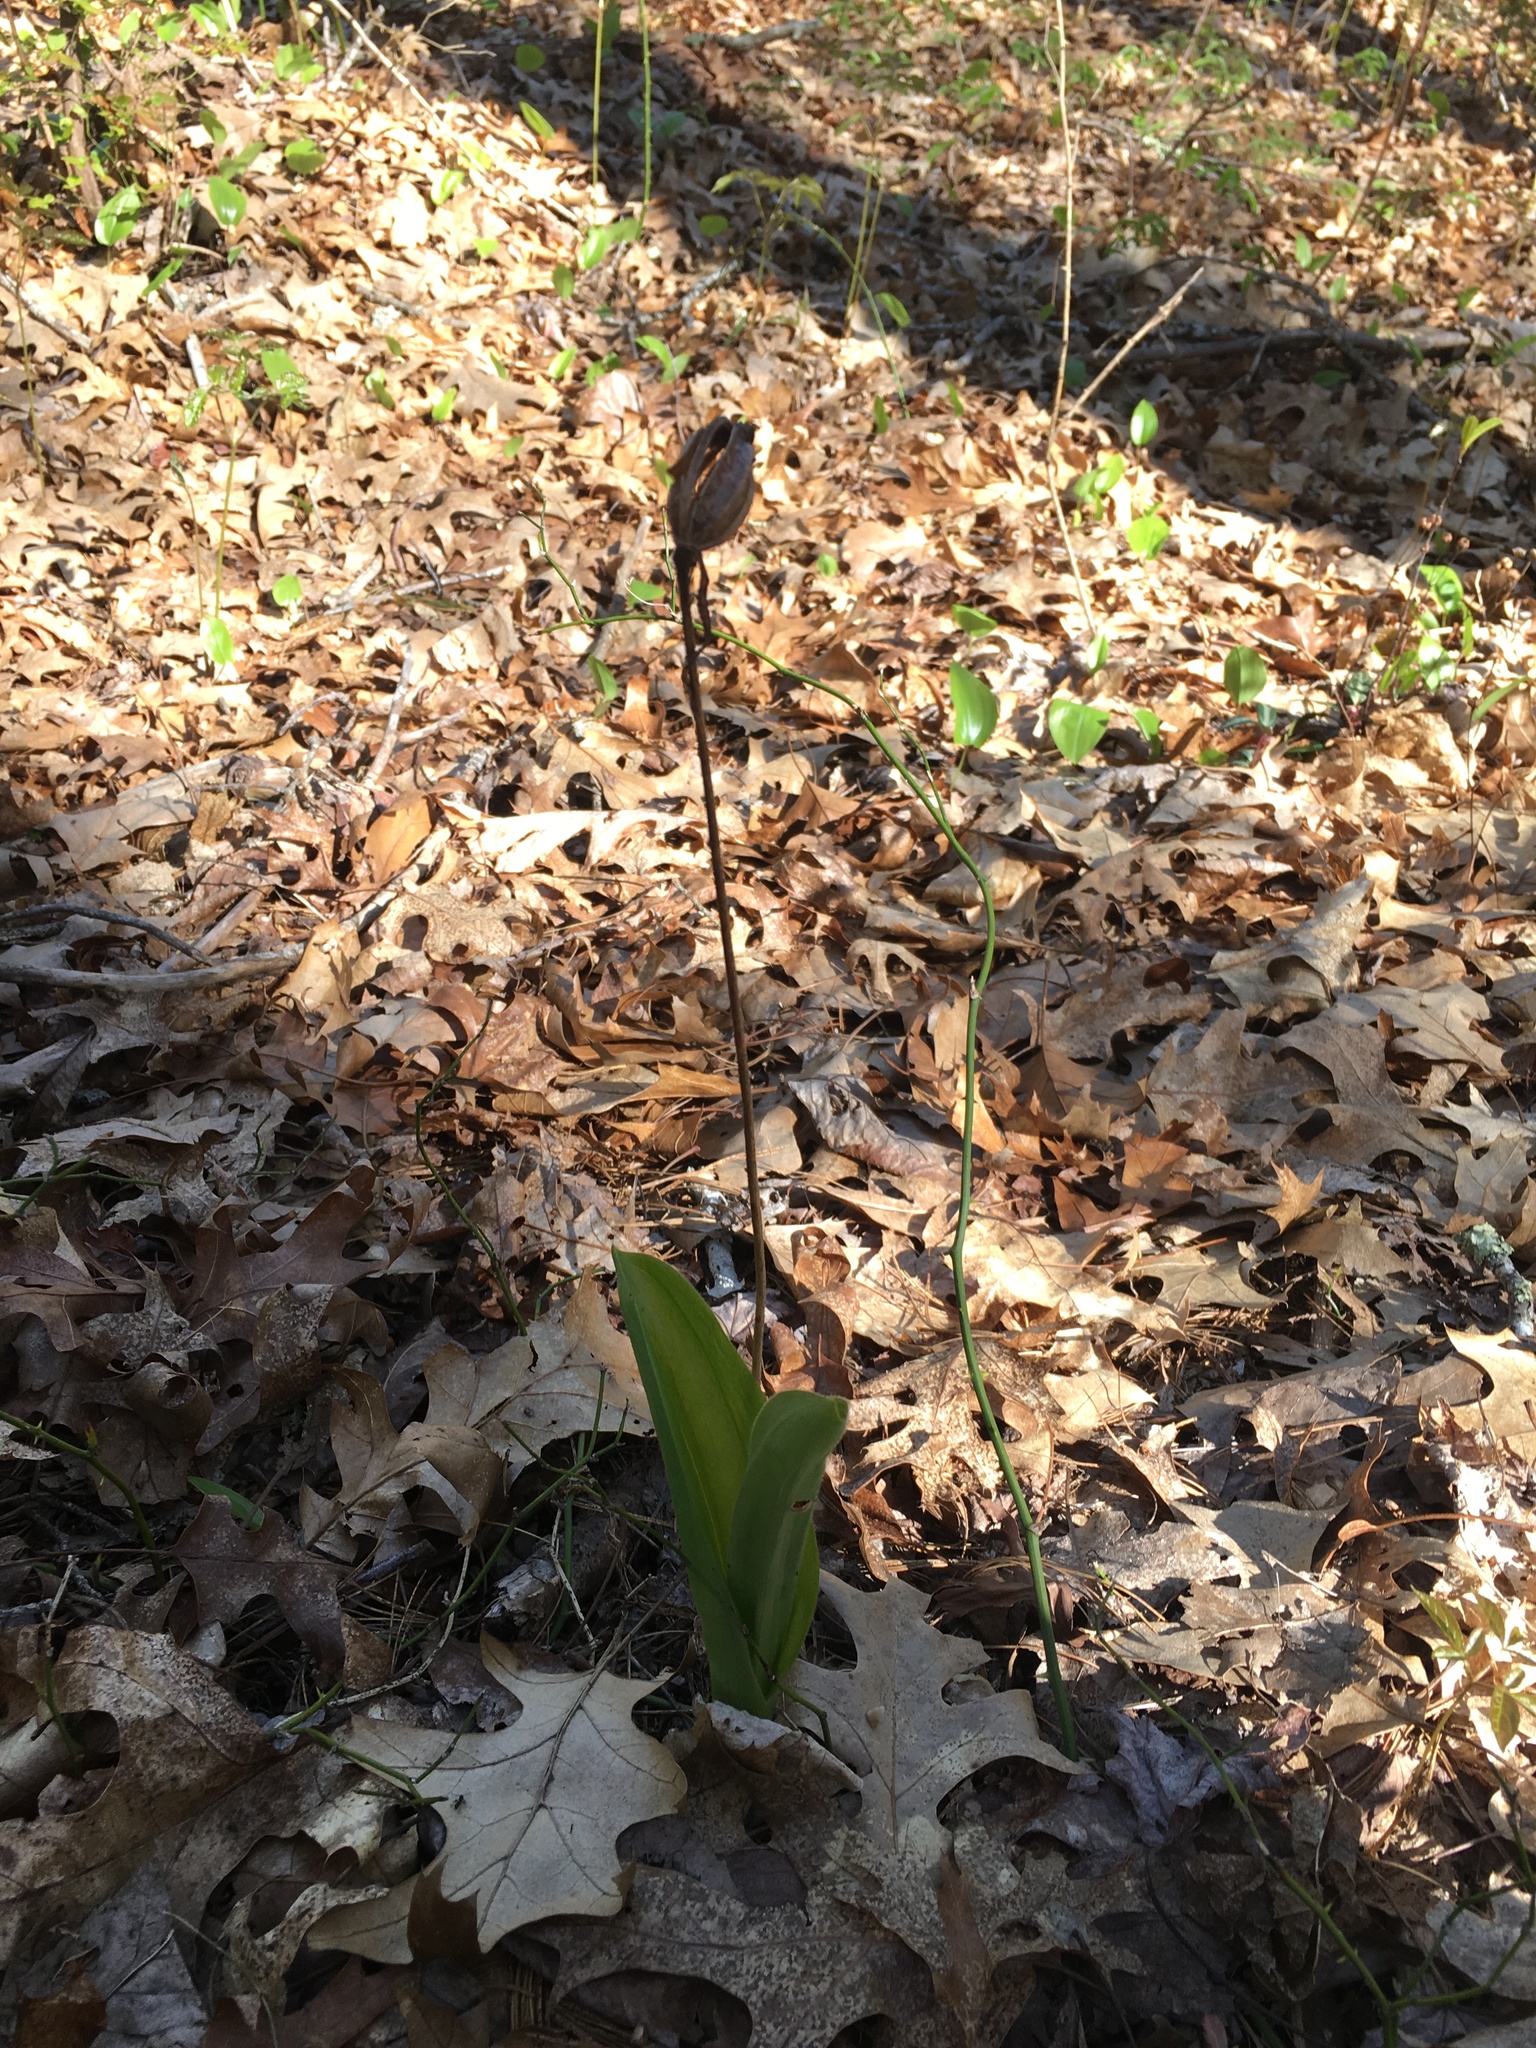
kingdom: Plantae
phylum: Tracheophyta
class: Liliopsida
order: Asparagales
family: Orchidaceae
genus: Cypripedium
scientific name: Cypripedium acaule
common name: Pink lady's-slipper
